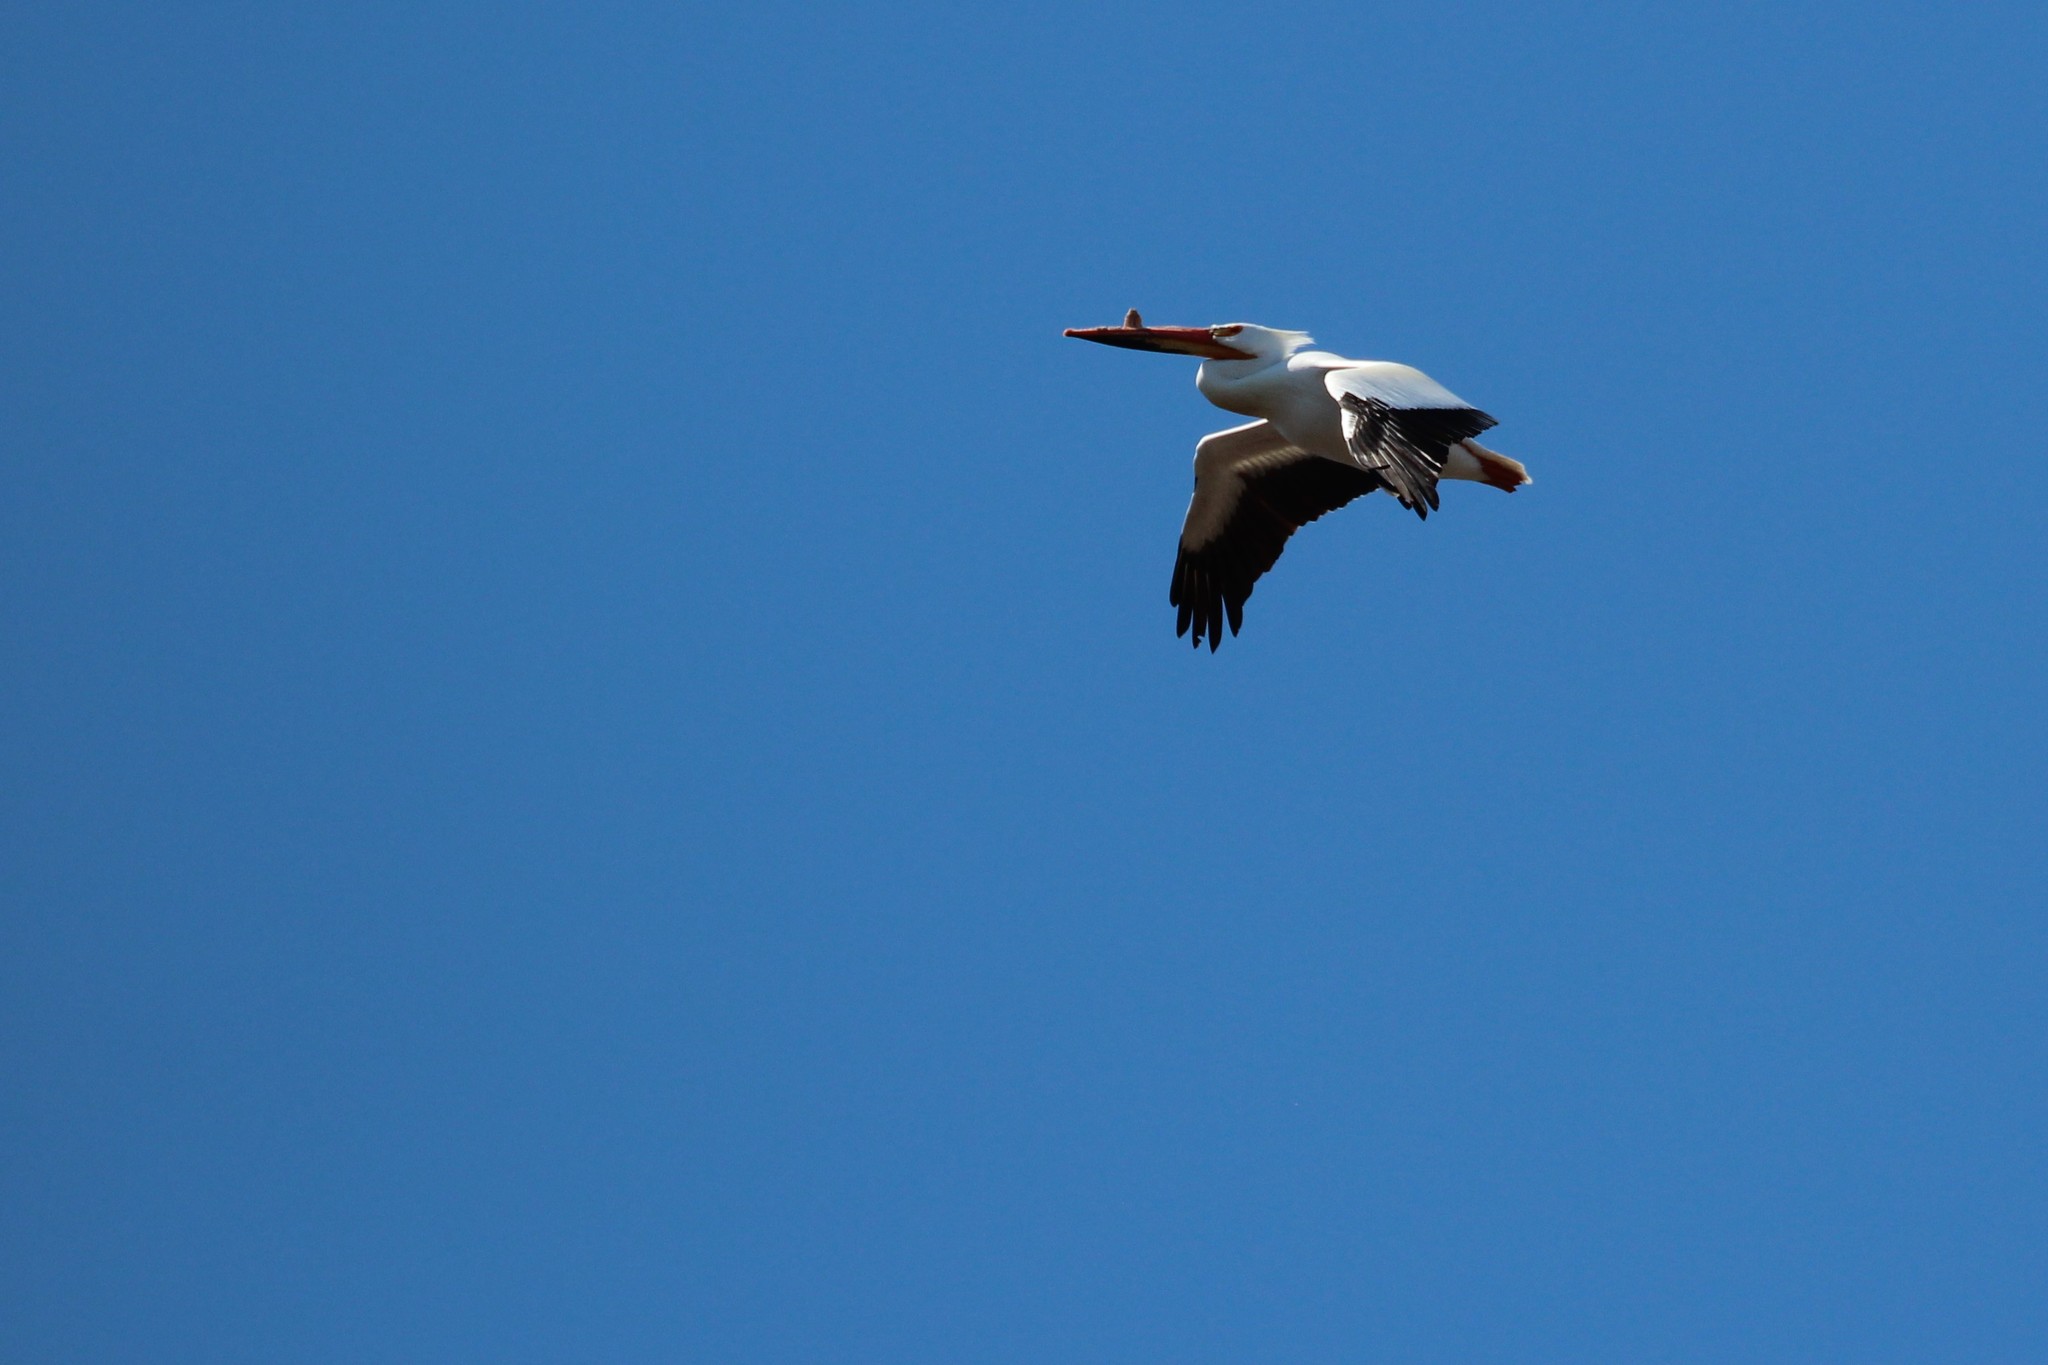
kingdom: Animalia
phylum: Chordata
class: Aves
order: Pelecaniformes
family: Pelecanidae
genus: Pelecanus
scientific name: Pelecanus erythrorhynchos
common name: American white pelican
